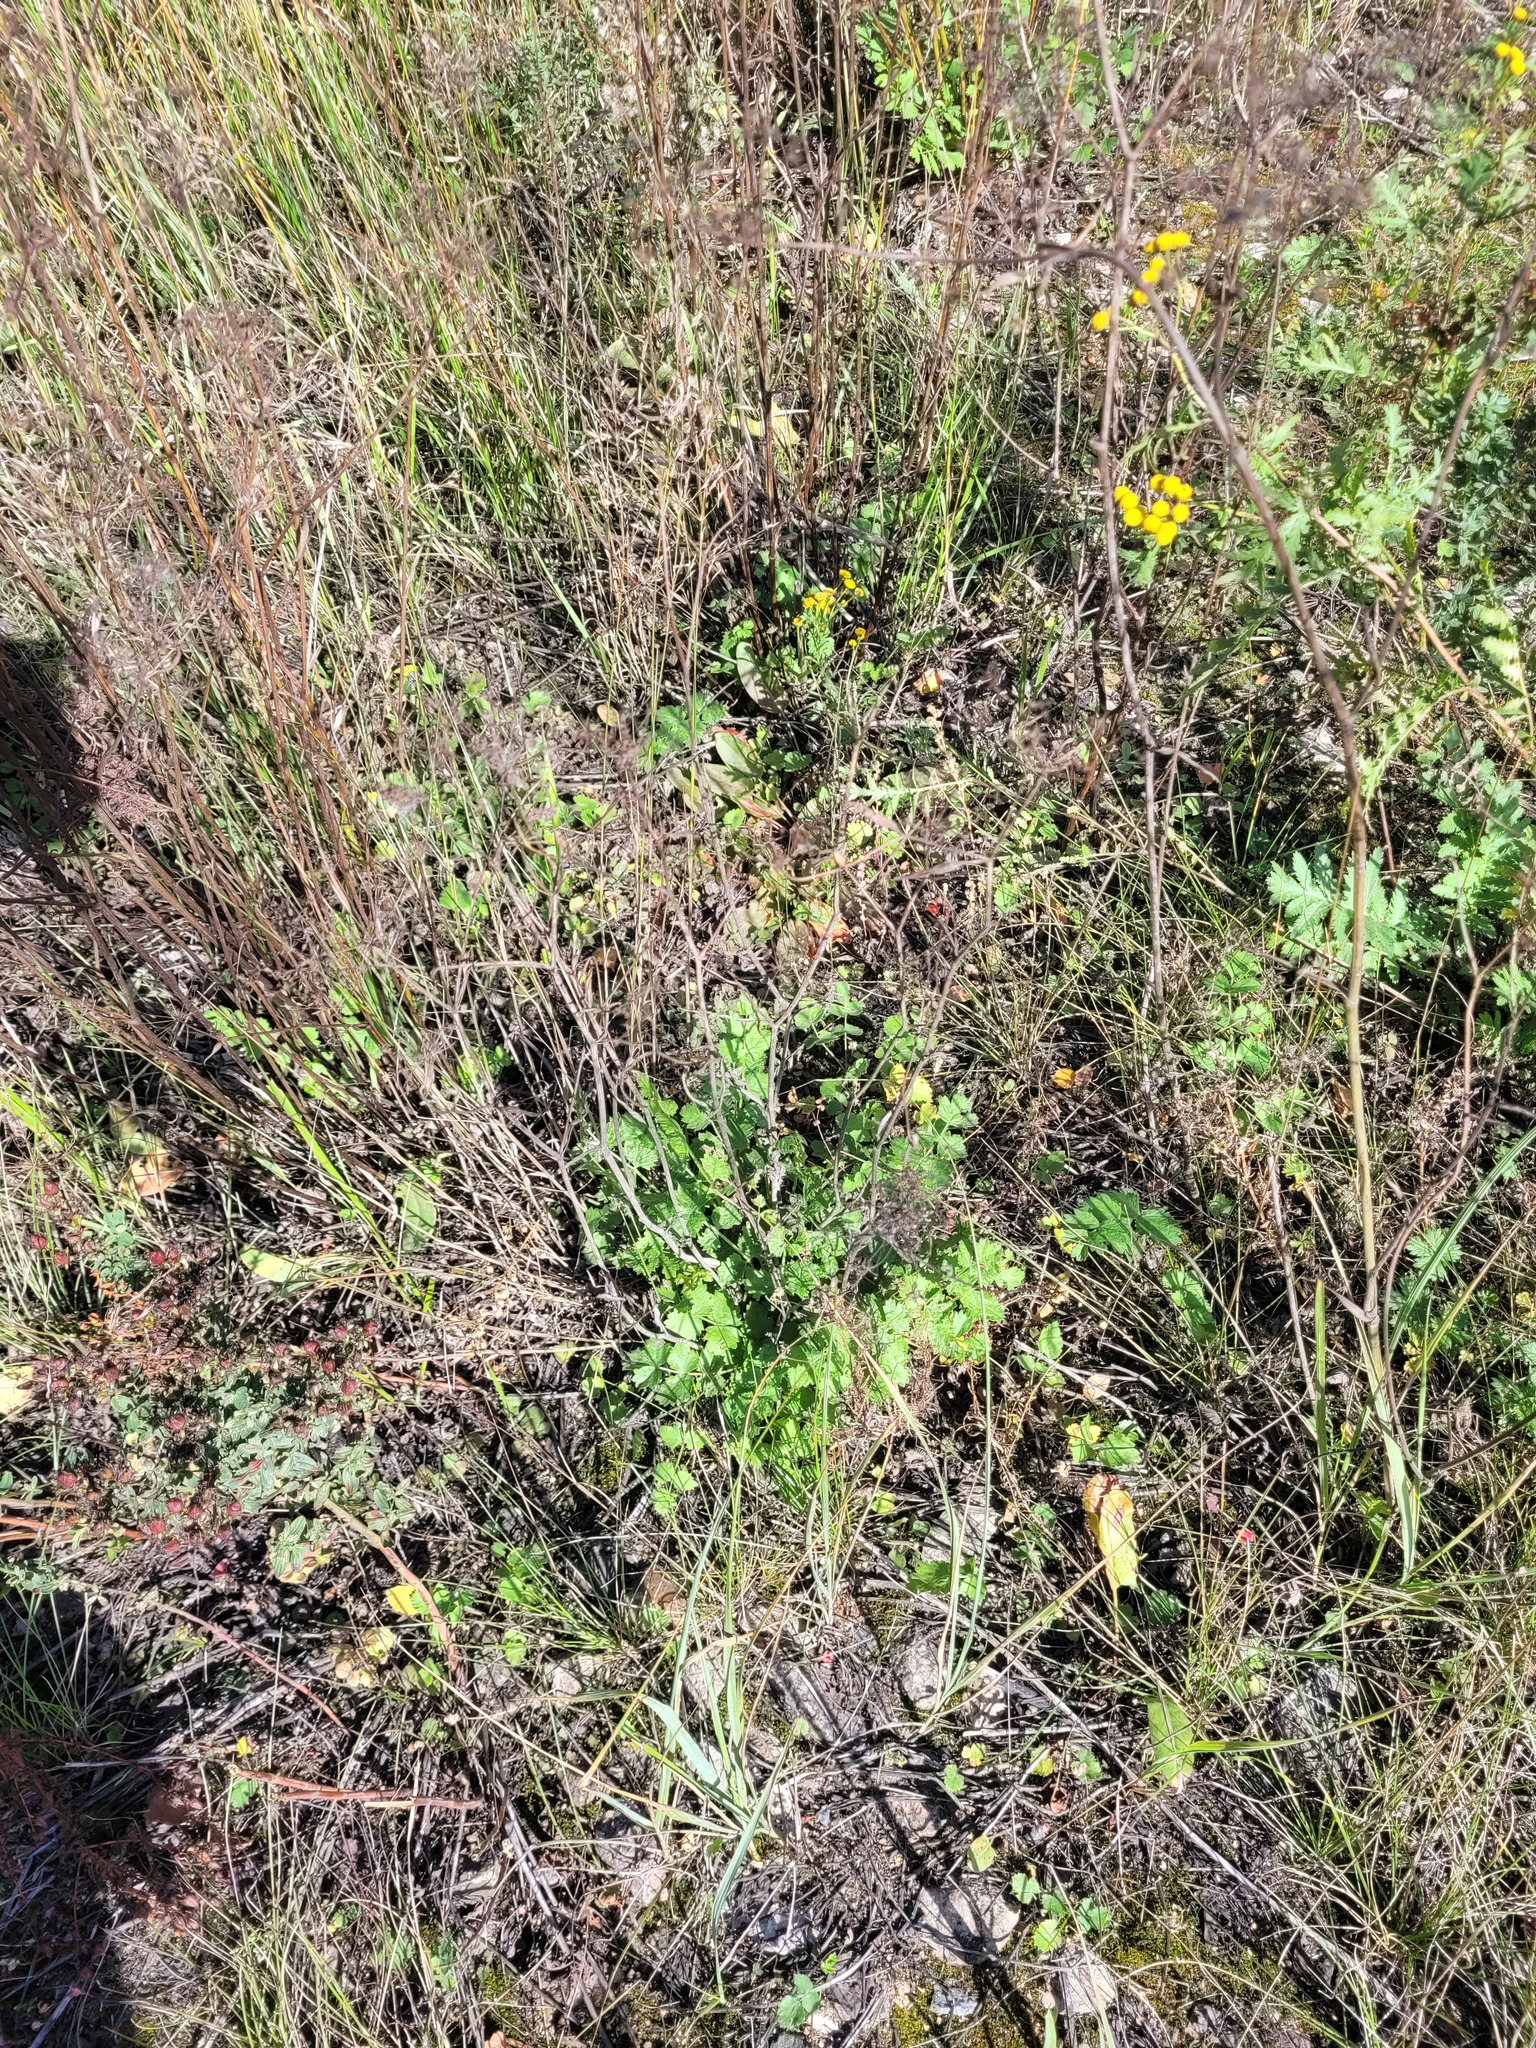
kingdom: Plantae
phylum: Tracheophyta
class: Magnoliopsida
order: Apiales
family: Apiaceae
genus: Pimpinella
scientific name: Pimpinella saxifraga
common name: Burnet-saxifrage
